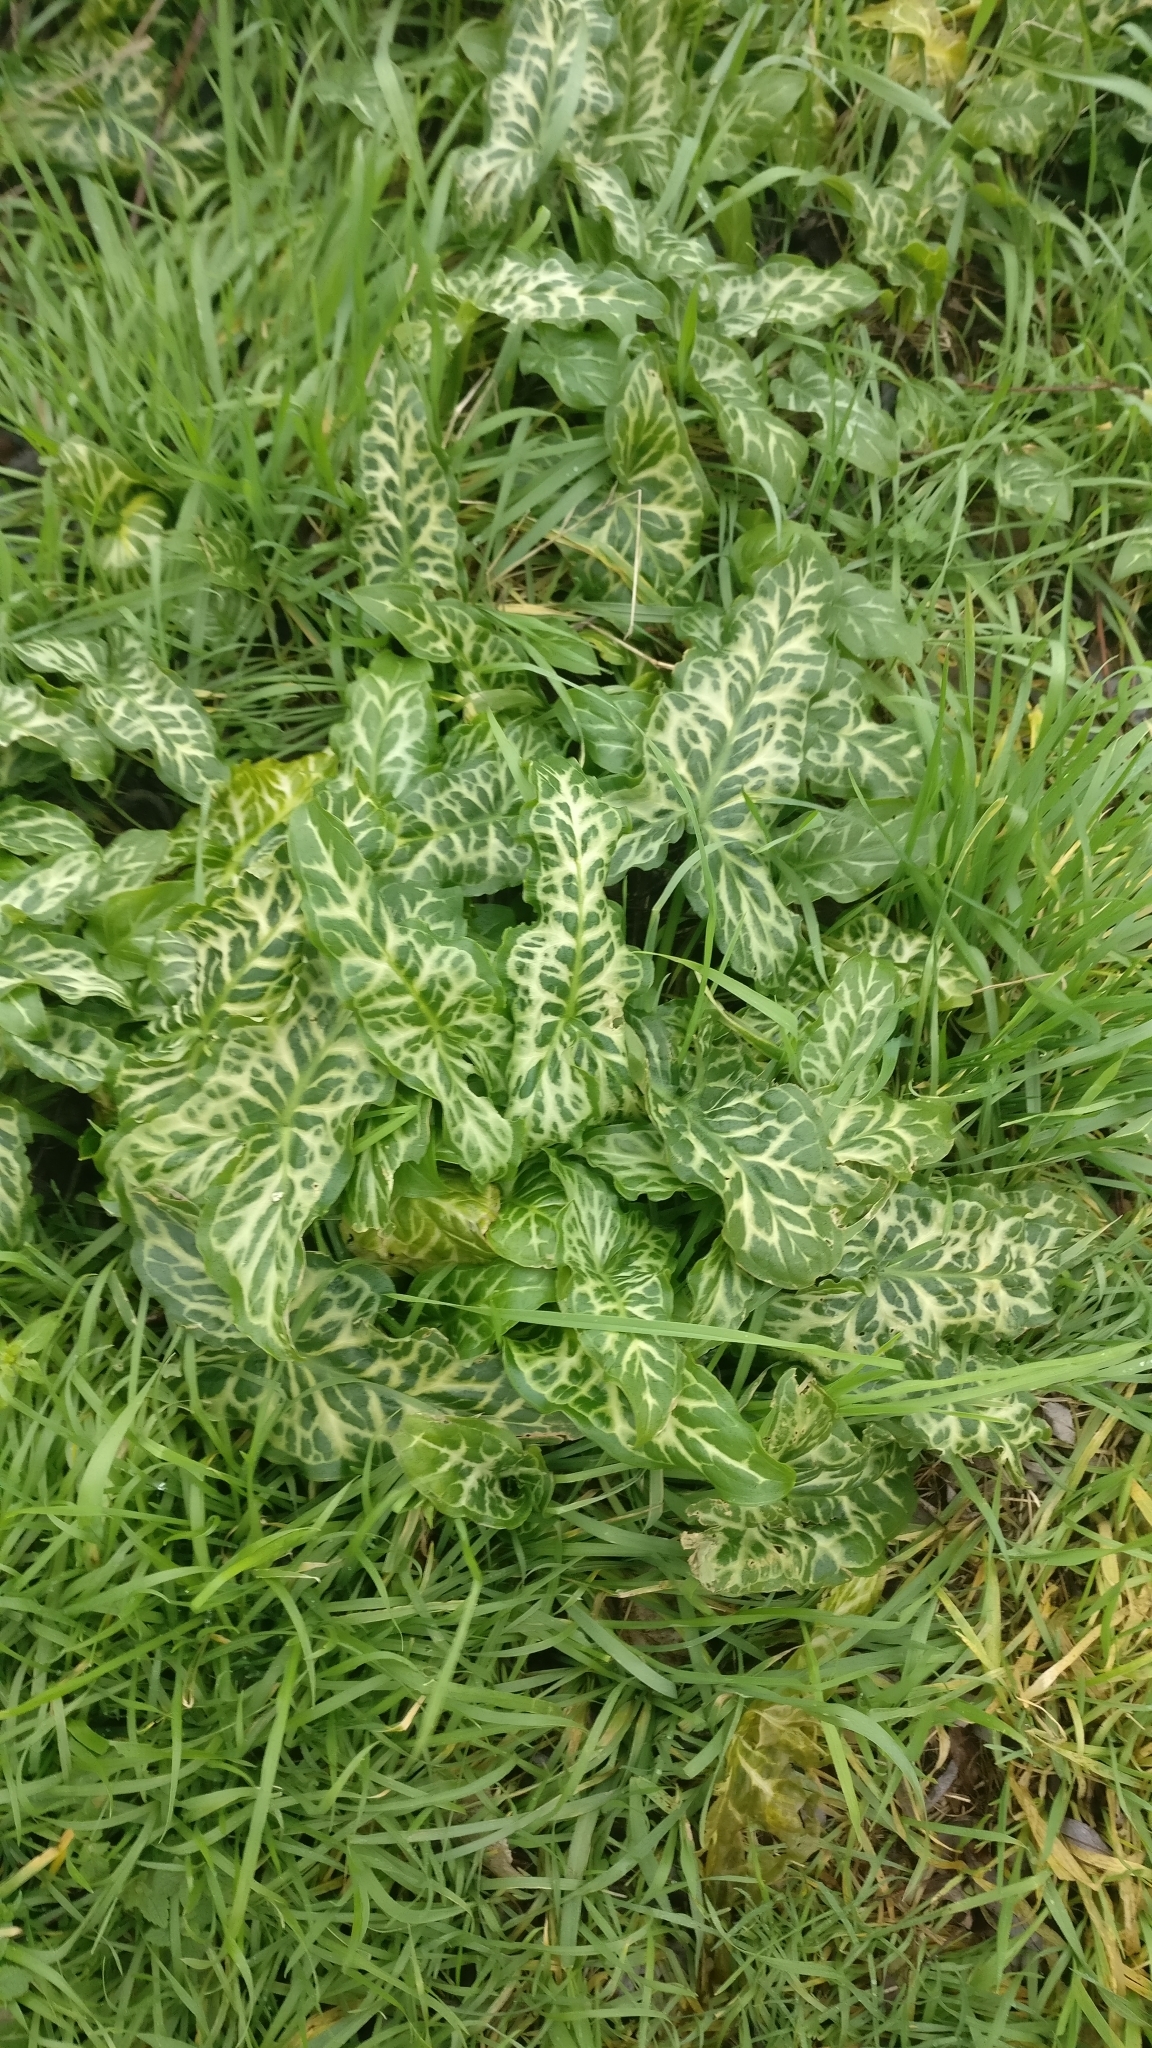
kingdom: Plantae
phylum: Tracheophyta
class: Liliopsida
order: Alismatales
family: Araceae
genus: Arum
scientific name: Arum italicum
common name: Italian lords-and-ladies
